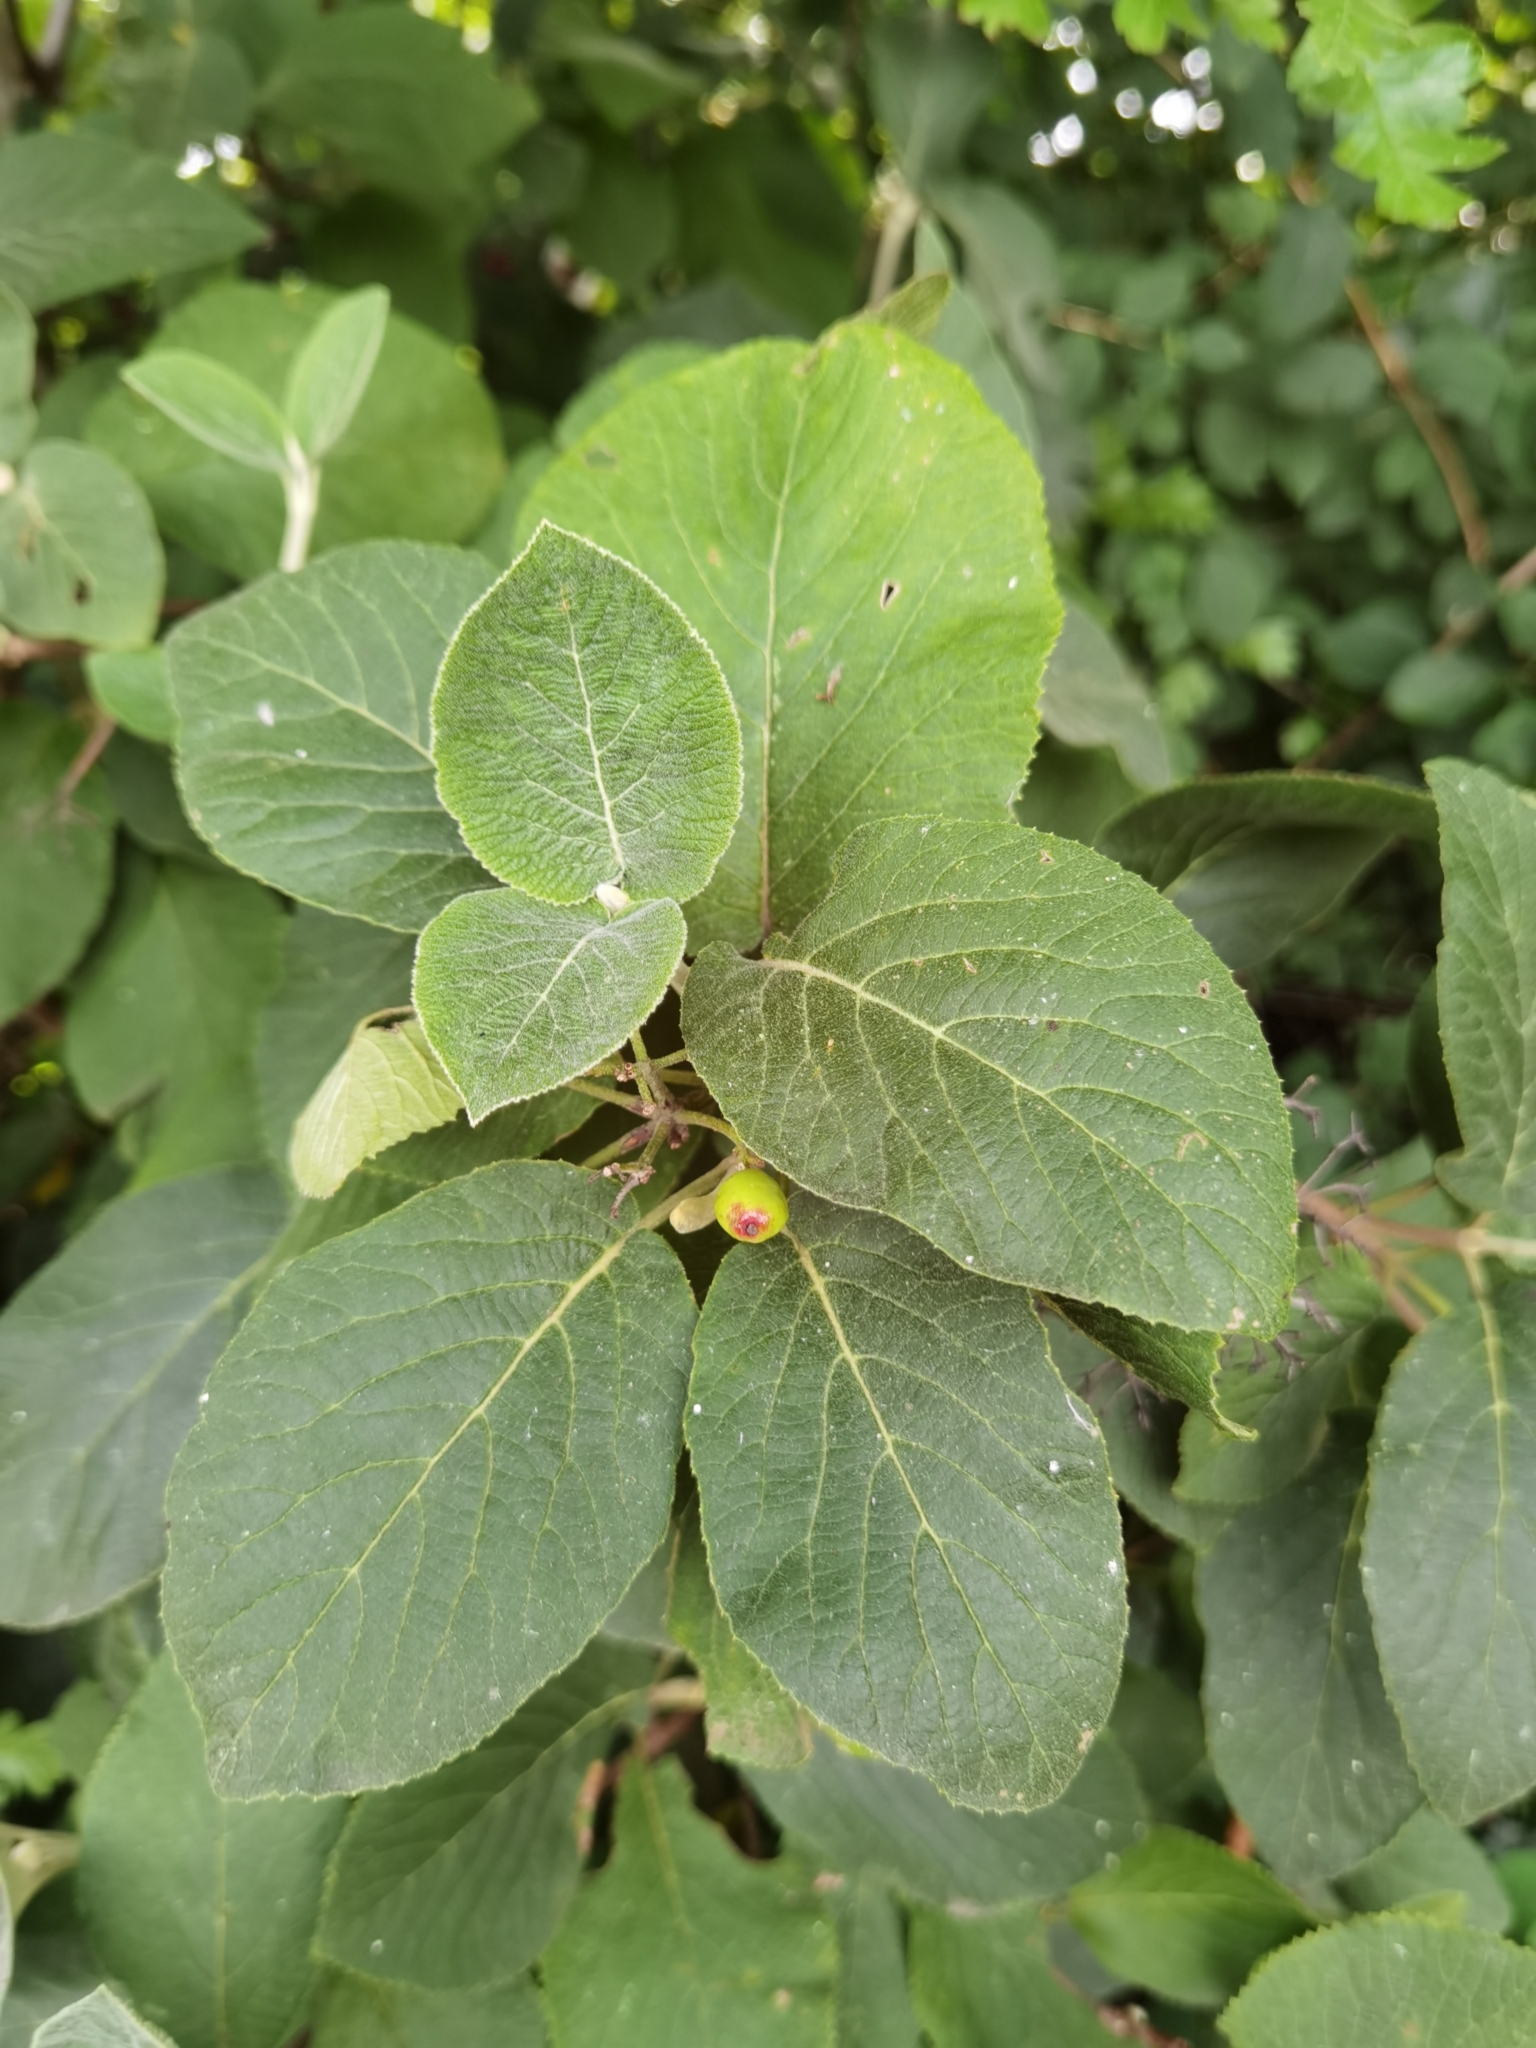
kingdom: Plantae
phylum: Tracheophyta
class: Magnoliopsida
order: Dipsacales
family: Viburnaceae
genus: Viburnum
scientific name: Viburnum lantana
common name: Wayfaring tree
